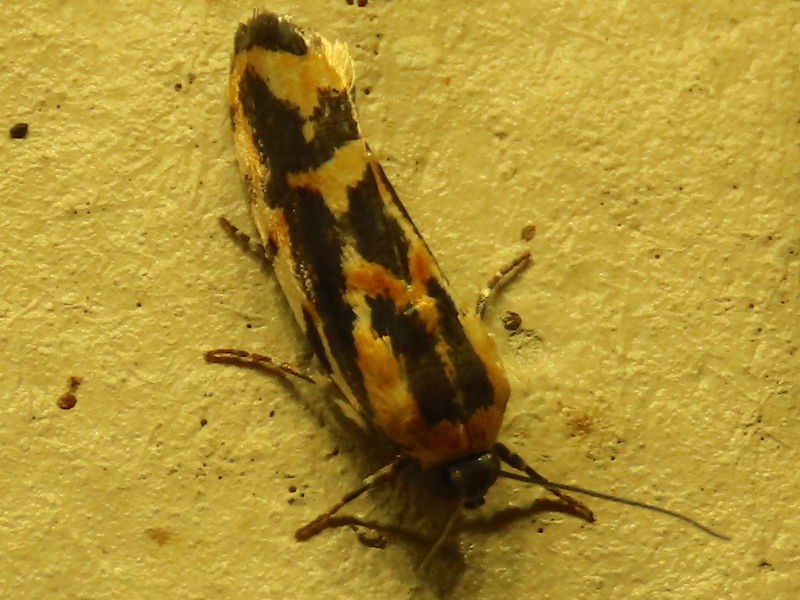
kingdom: Animalia
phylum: Arthropoda
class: Insecta
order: Lepidoptera
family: Noctuidae
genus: Acontia
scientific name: Acontia leo
